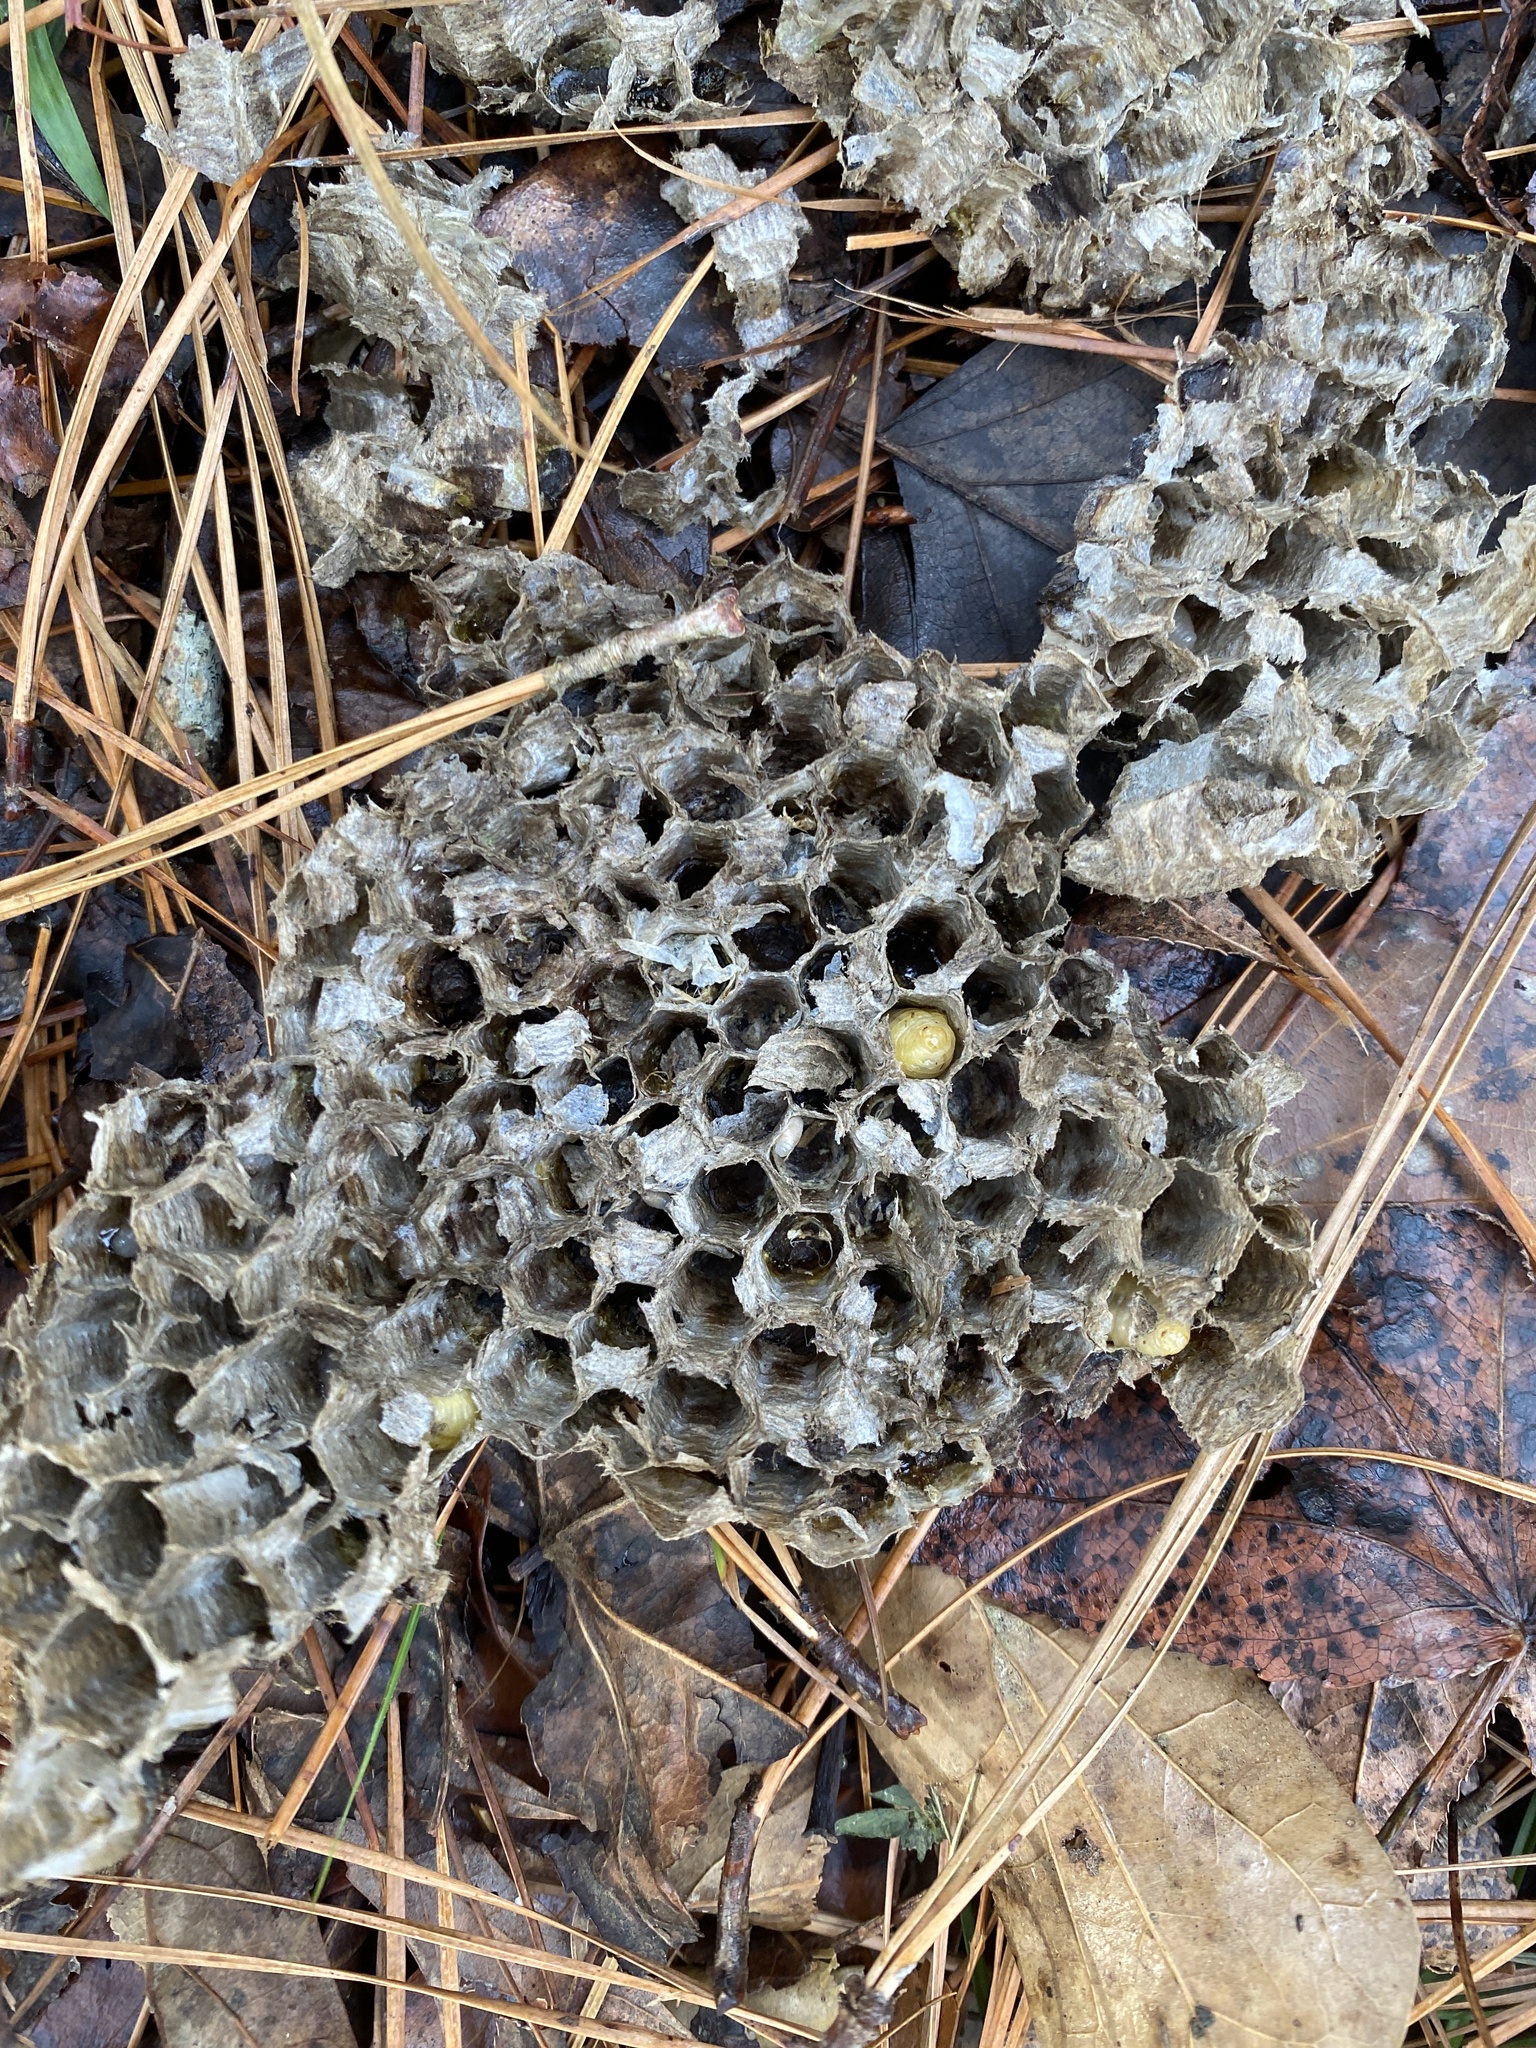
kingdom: Animalia
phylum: Arthropoda
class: Insecta
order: Hymenoptera
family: Vespidae
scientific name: Vespidae
